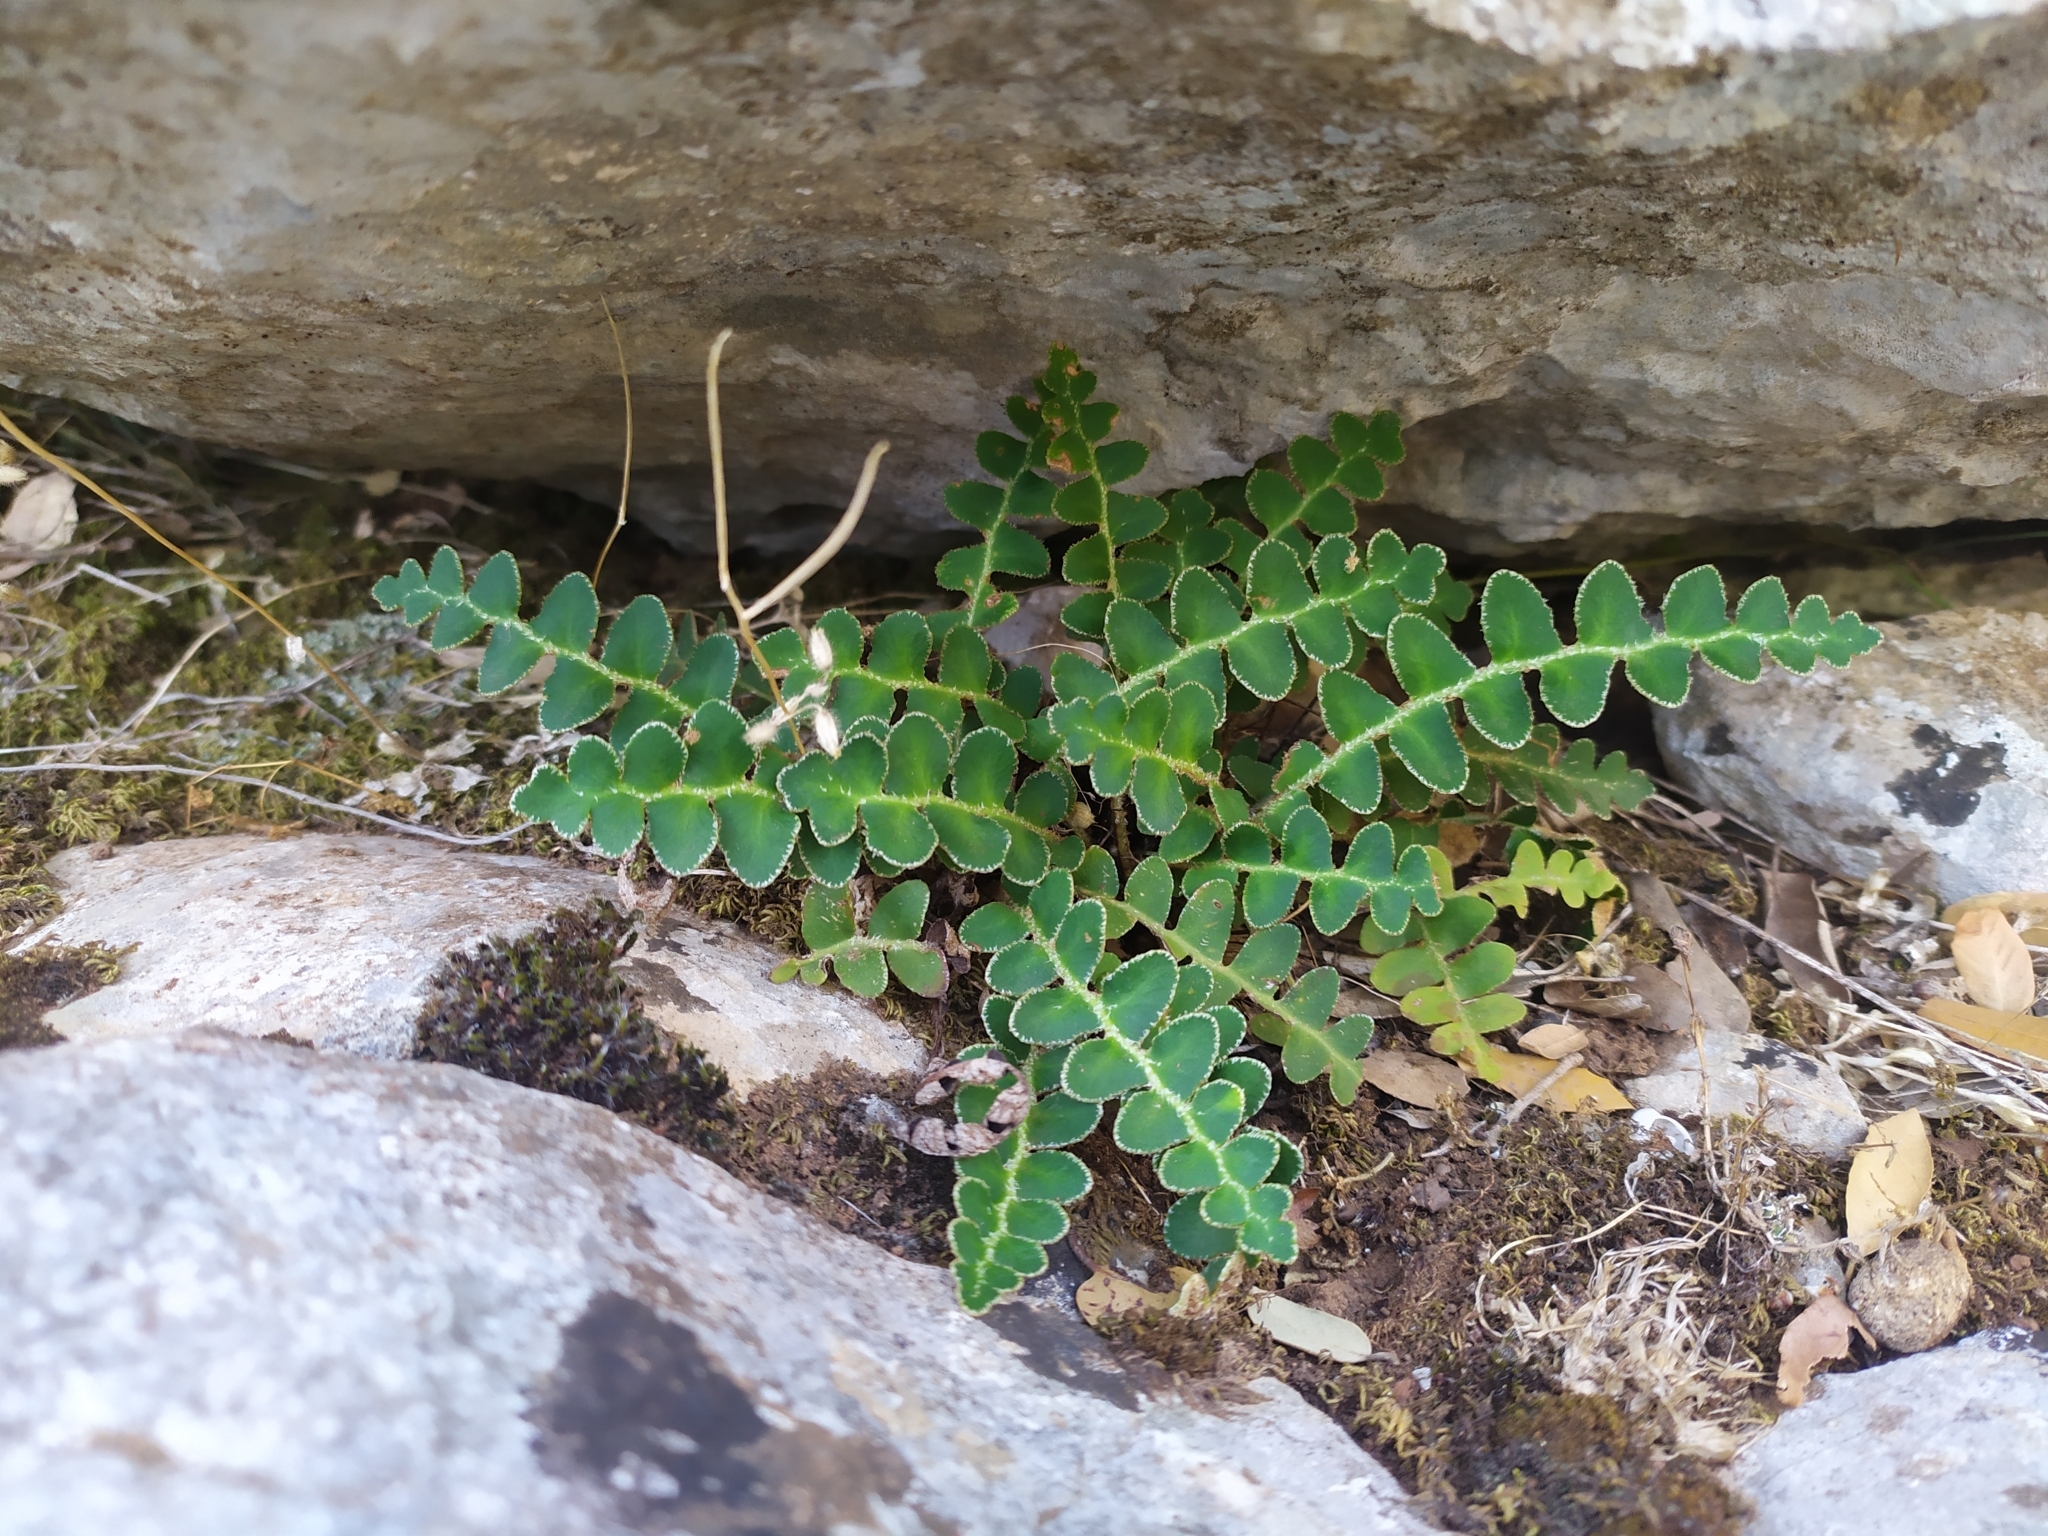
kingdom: Plantae
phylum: Tracheophyta
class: Polypodiopsida
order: Polypodiales
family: Aspleniaceae
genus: Asplenium
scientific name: Asplenium ceterach
